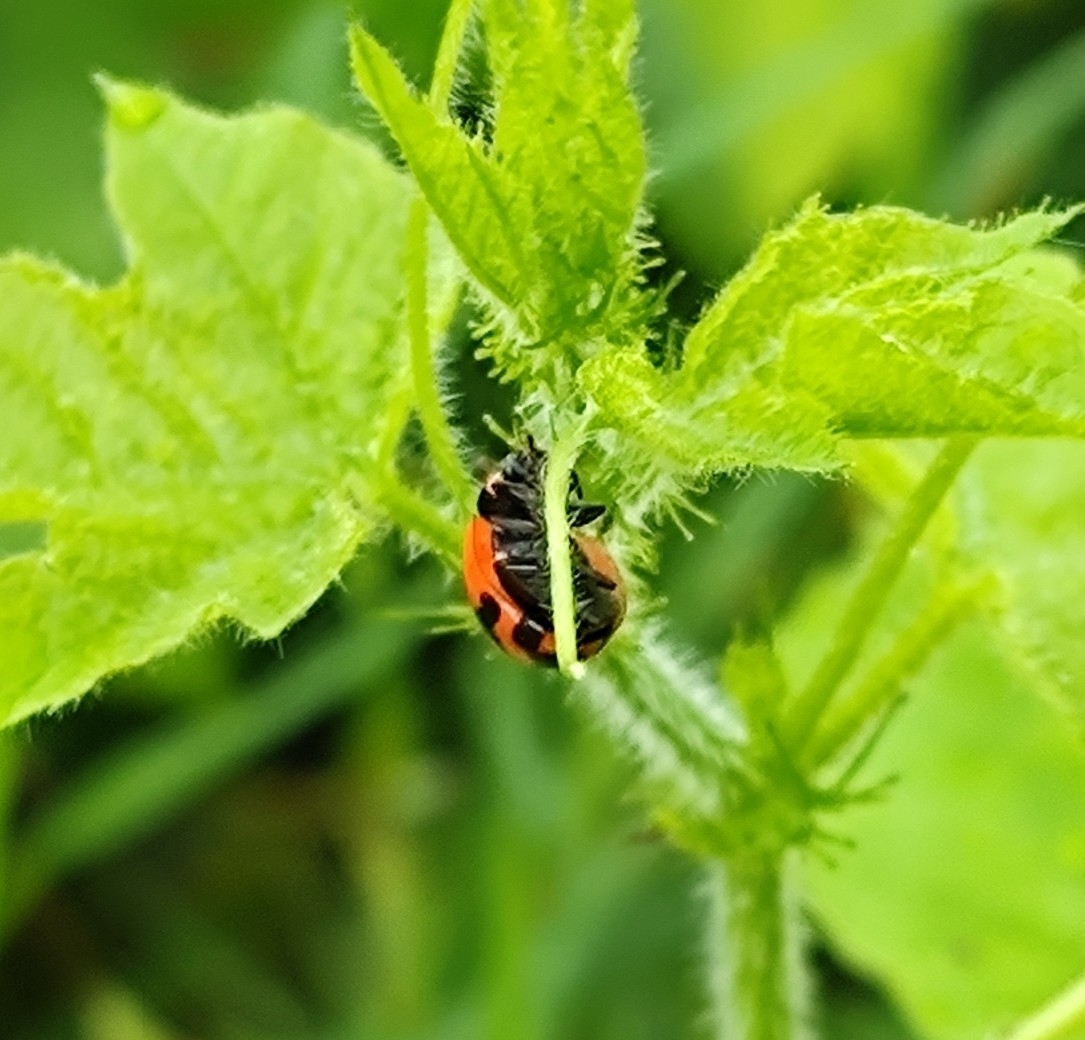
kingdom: Animalia
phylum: Arthropoda
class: Insecta
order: Coleoptera
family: Coccinellidae
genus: Coccinella
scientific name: Coccinella transversalis
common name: Transverse lady beetle
